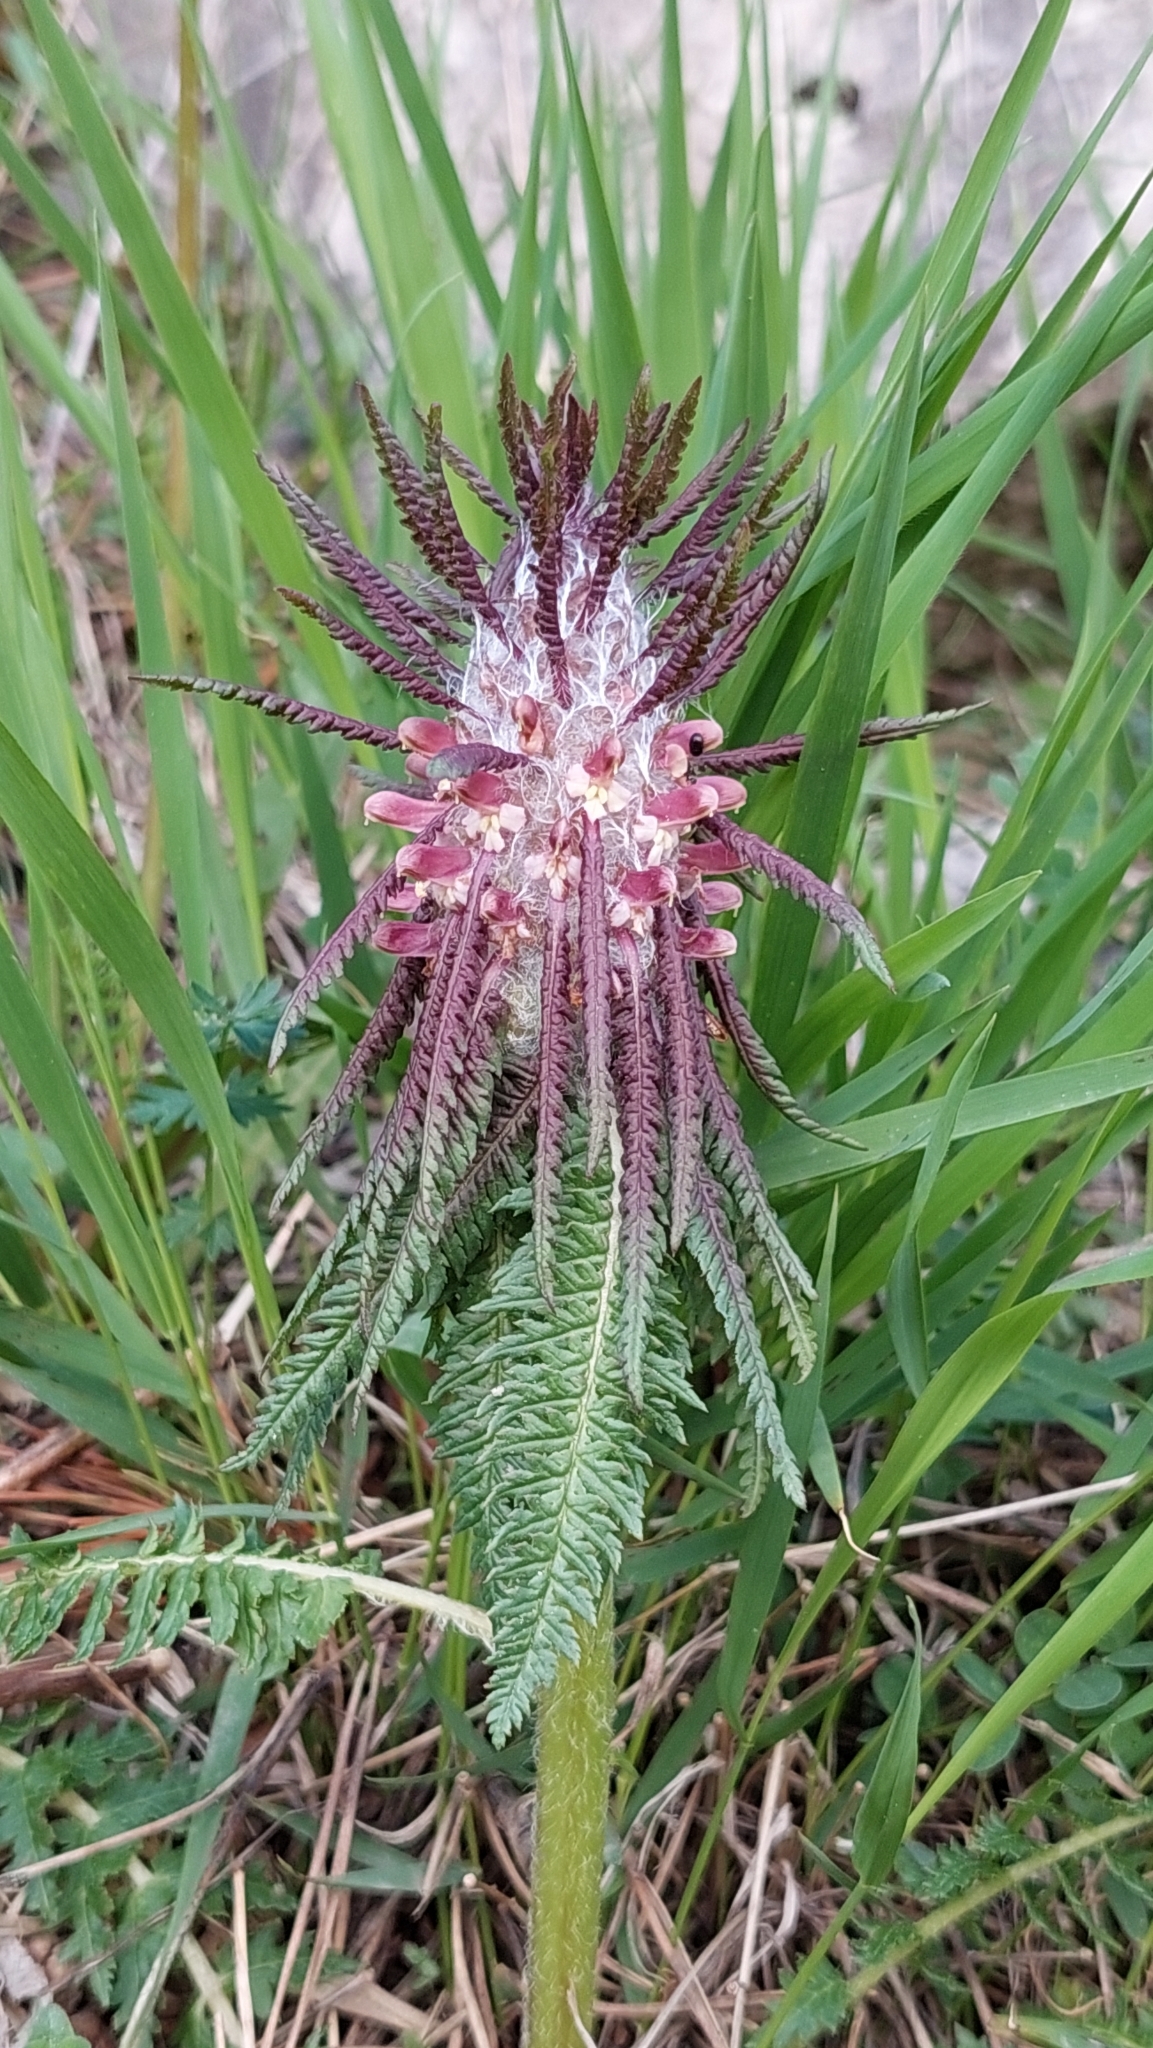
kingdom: Plantae
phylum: Tracheophyta
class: Magnoliopsida
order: Lamiales
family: Orobanchaceae
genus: Pedicularis
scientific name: Pedicularis wilhelmsiana
